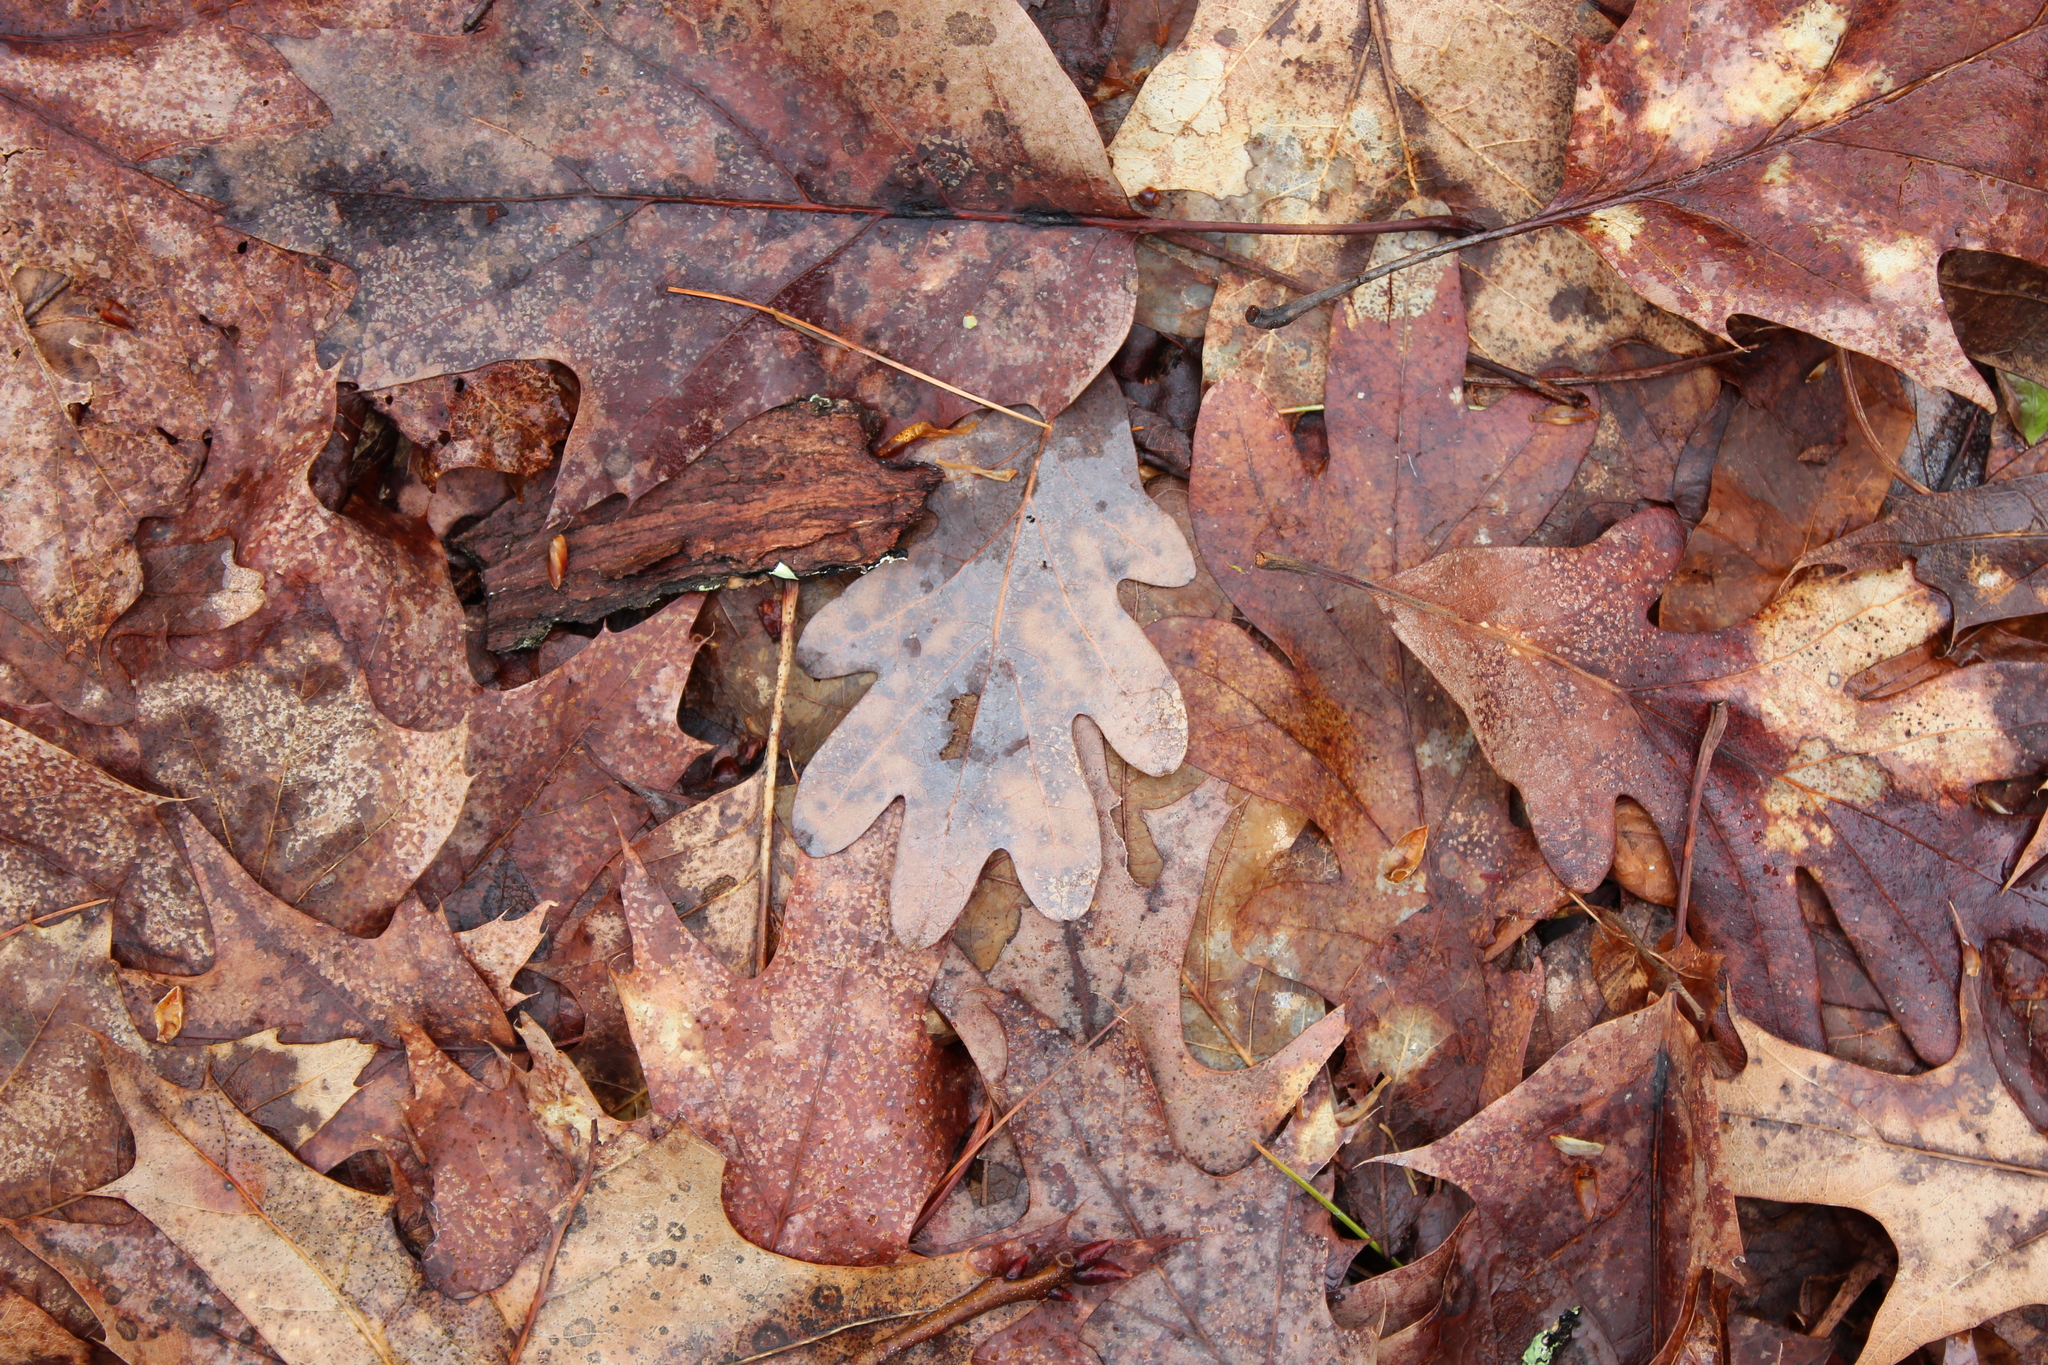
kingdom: Plantae
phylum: Tracheophyta
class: Magnoliopsida
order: Fagales
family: Fagaceae
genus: Quercus
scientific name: Quercus alba
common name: White oak
